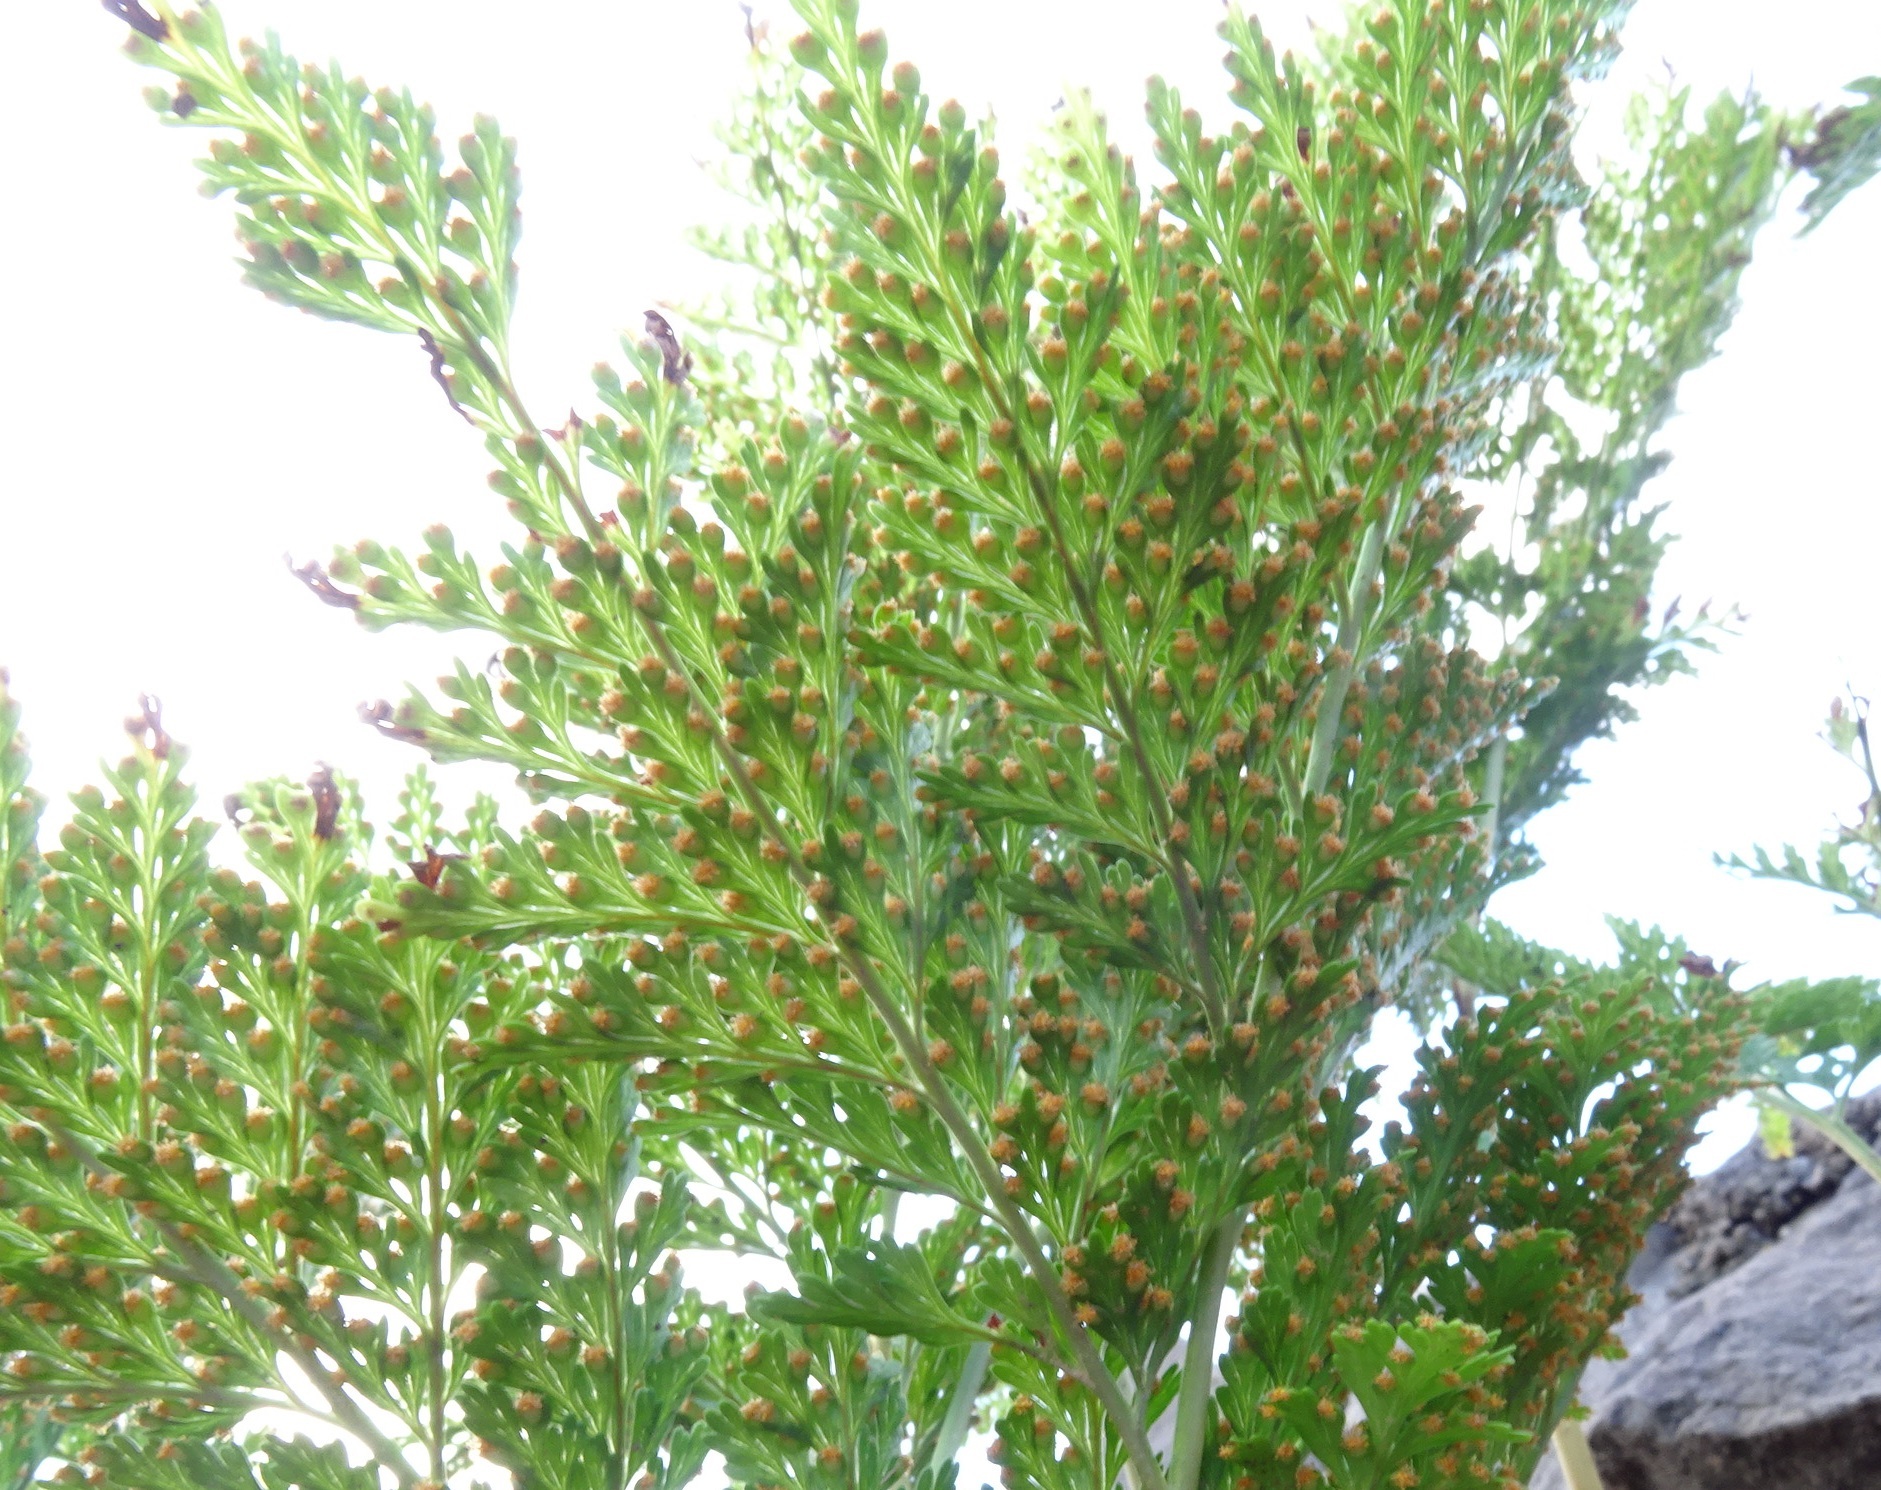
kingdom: Plantae
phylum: Tracheophyta
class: Polypodiopsida
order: Polypodiales
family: Davalliaceae
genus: Davallia
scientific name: Davallia canariensis
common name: Hare's-foot fern
